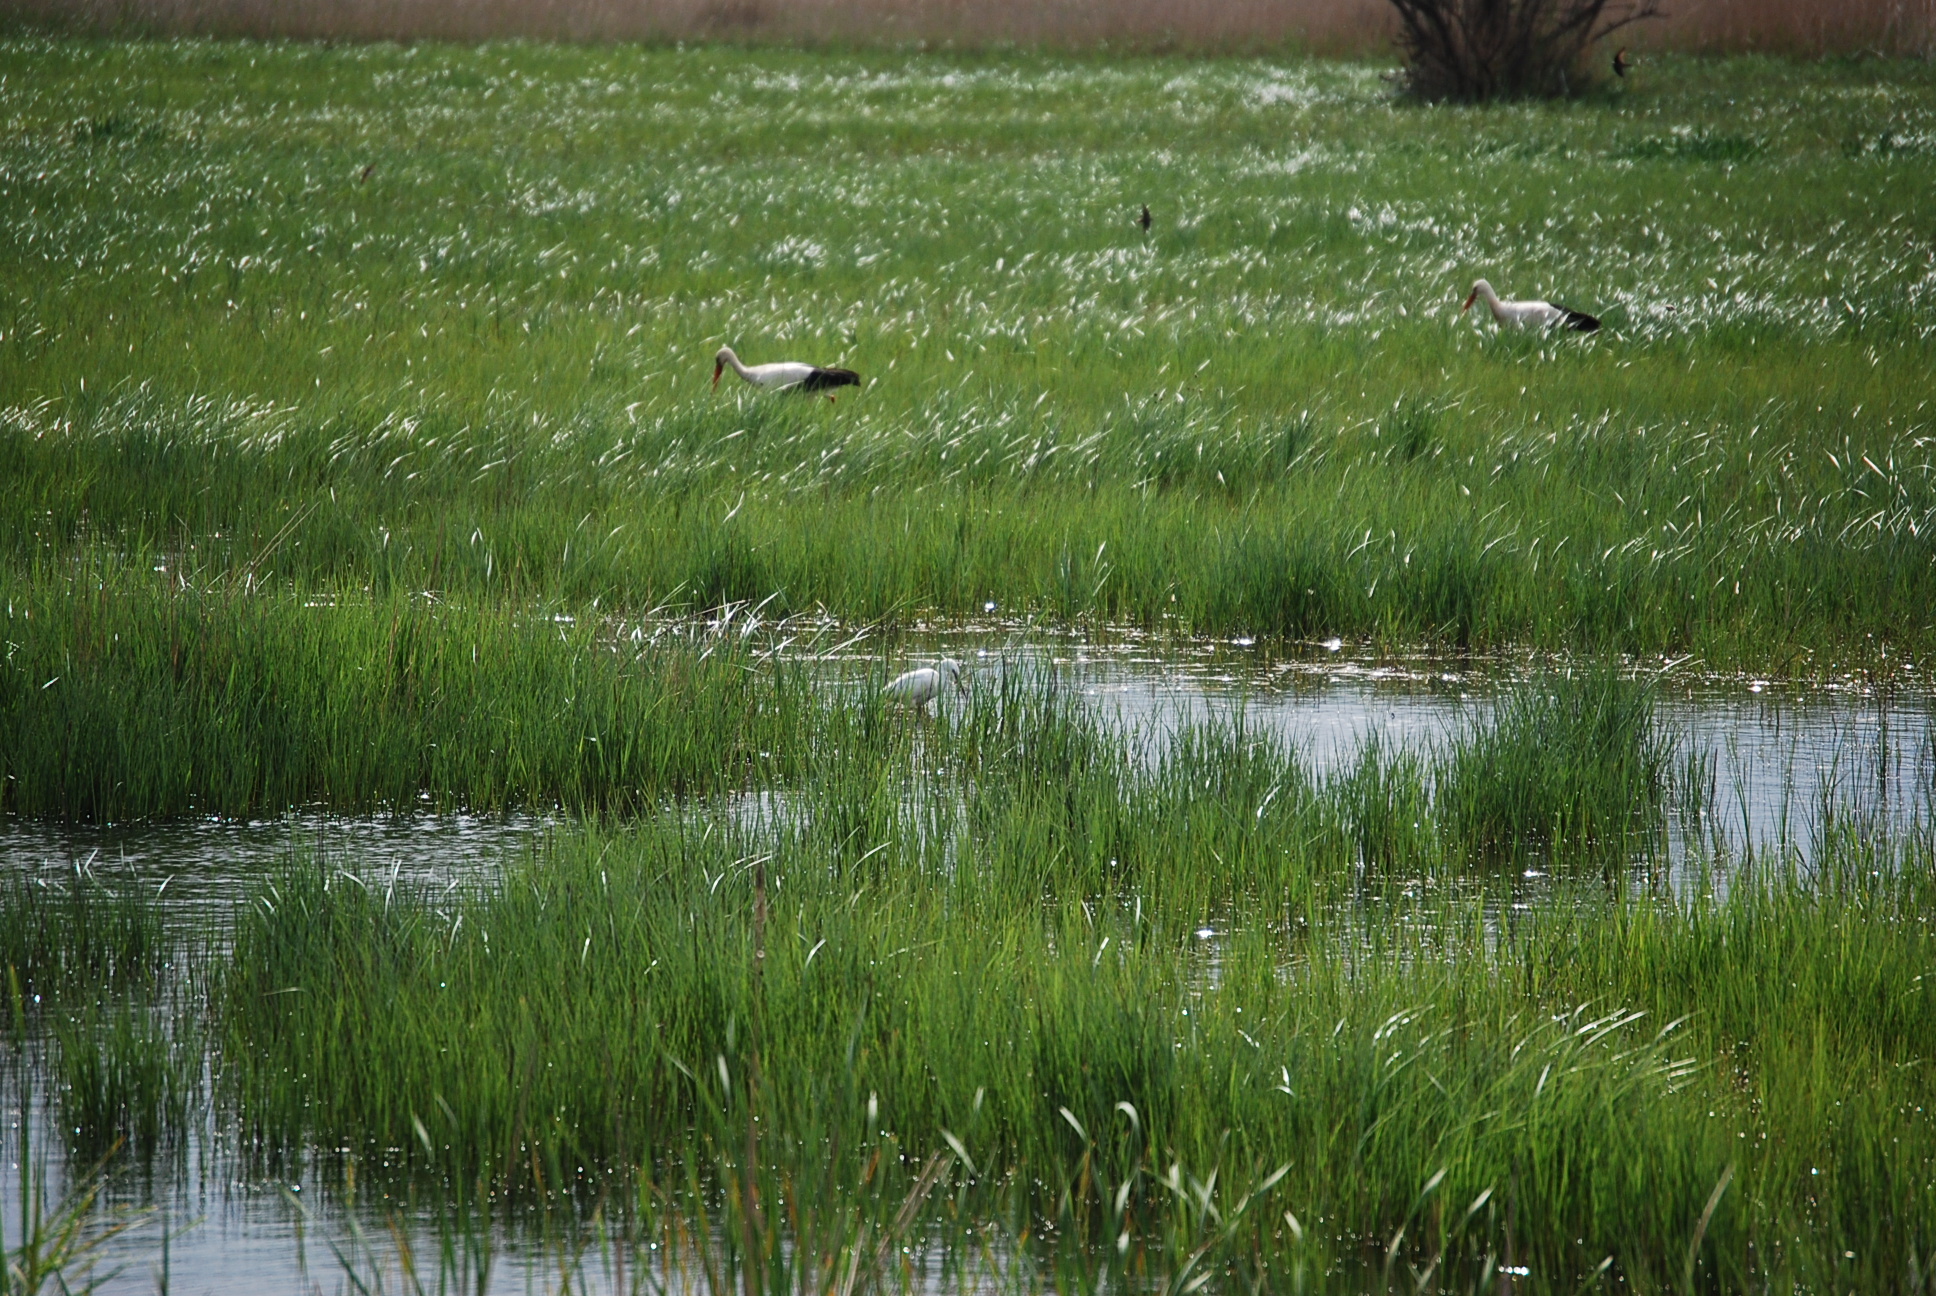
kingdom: Animalia
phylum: Chordata
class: Aves
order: Ciconiiformes
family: Ciconiidae
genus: Ciconia
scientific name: Ciconia ciconia
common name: White stork
